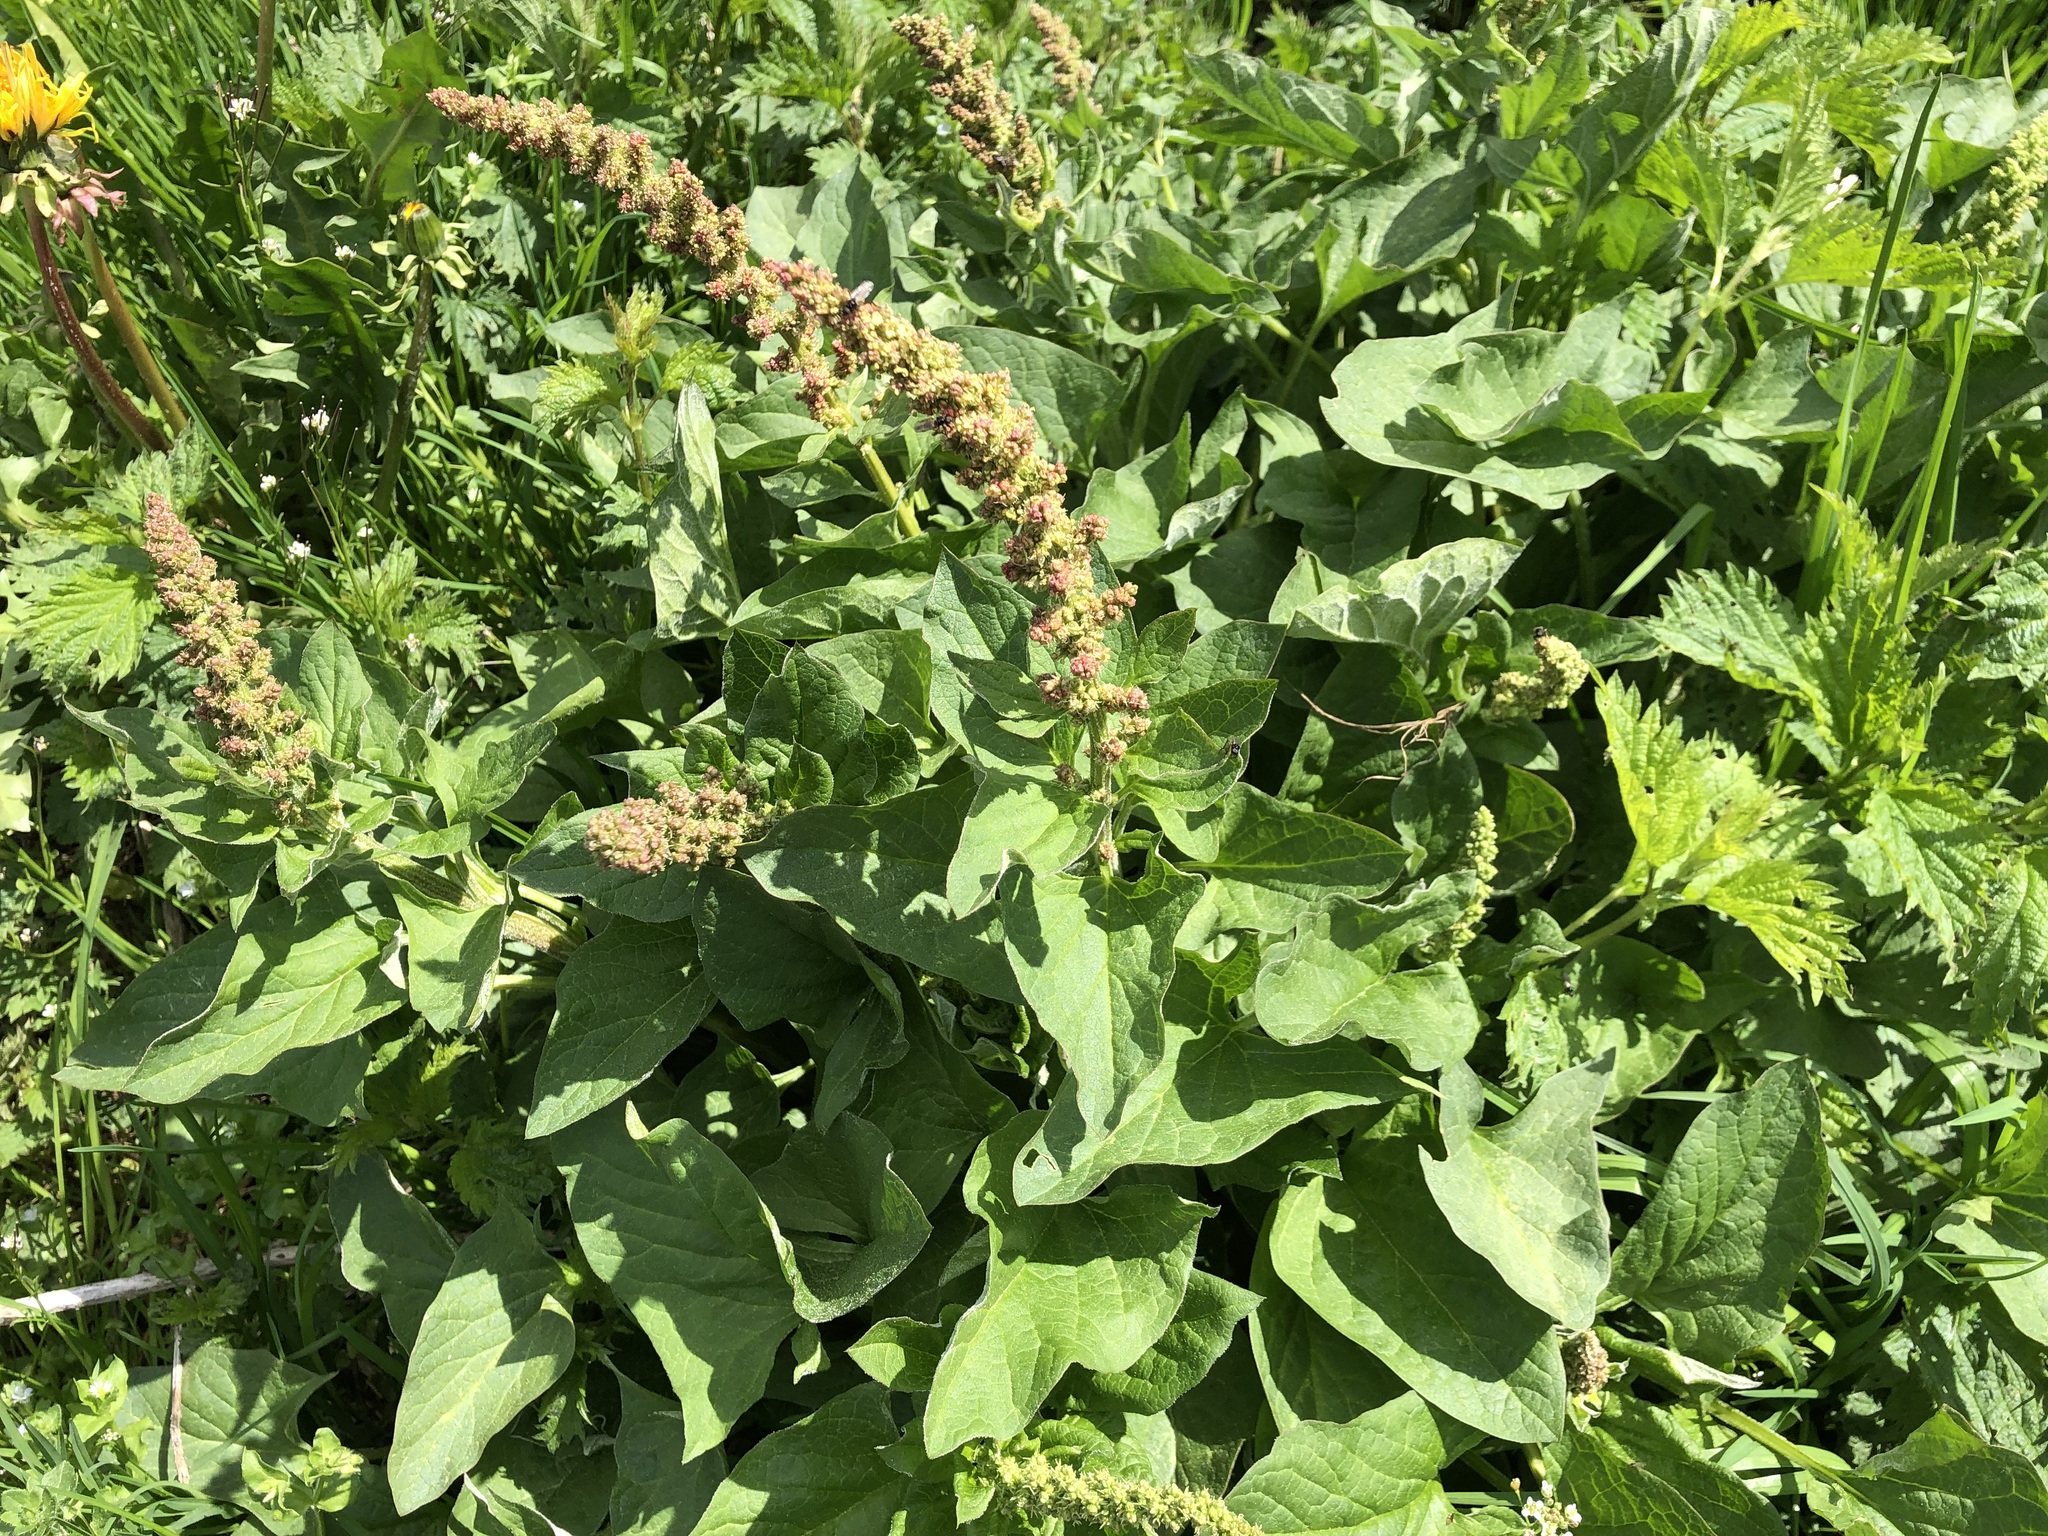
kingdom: Plantae
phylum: Tracheophyta
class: Magnoliopsida
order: Caryophyllales
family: Amaranthaceae
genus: Blitum
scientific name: Blitum bonus-henricus
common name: Good king henry
